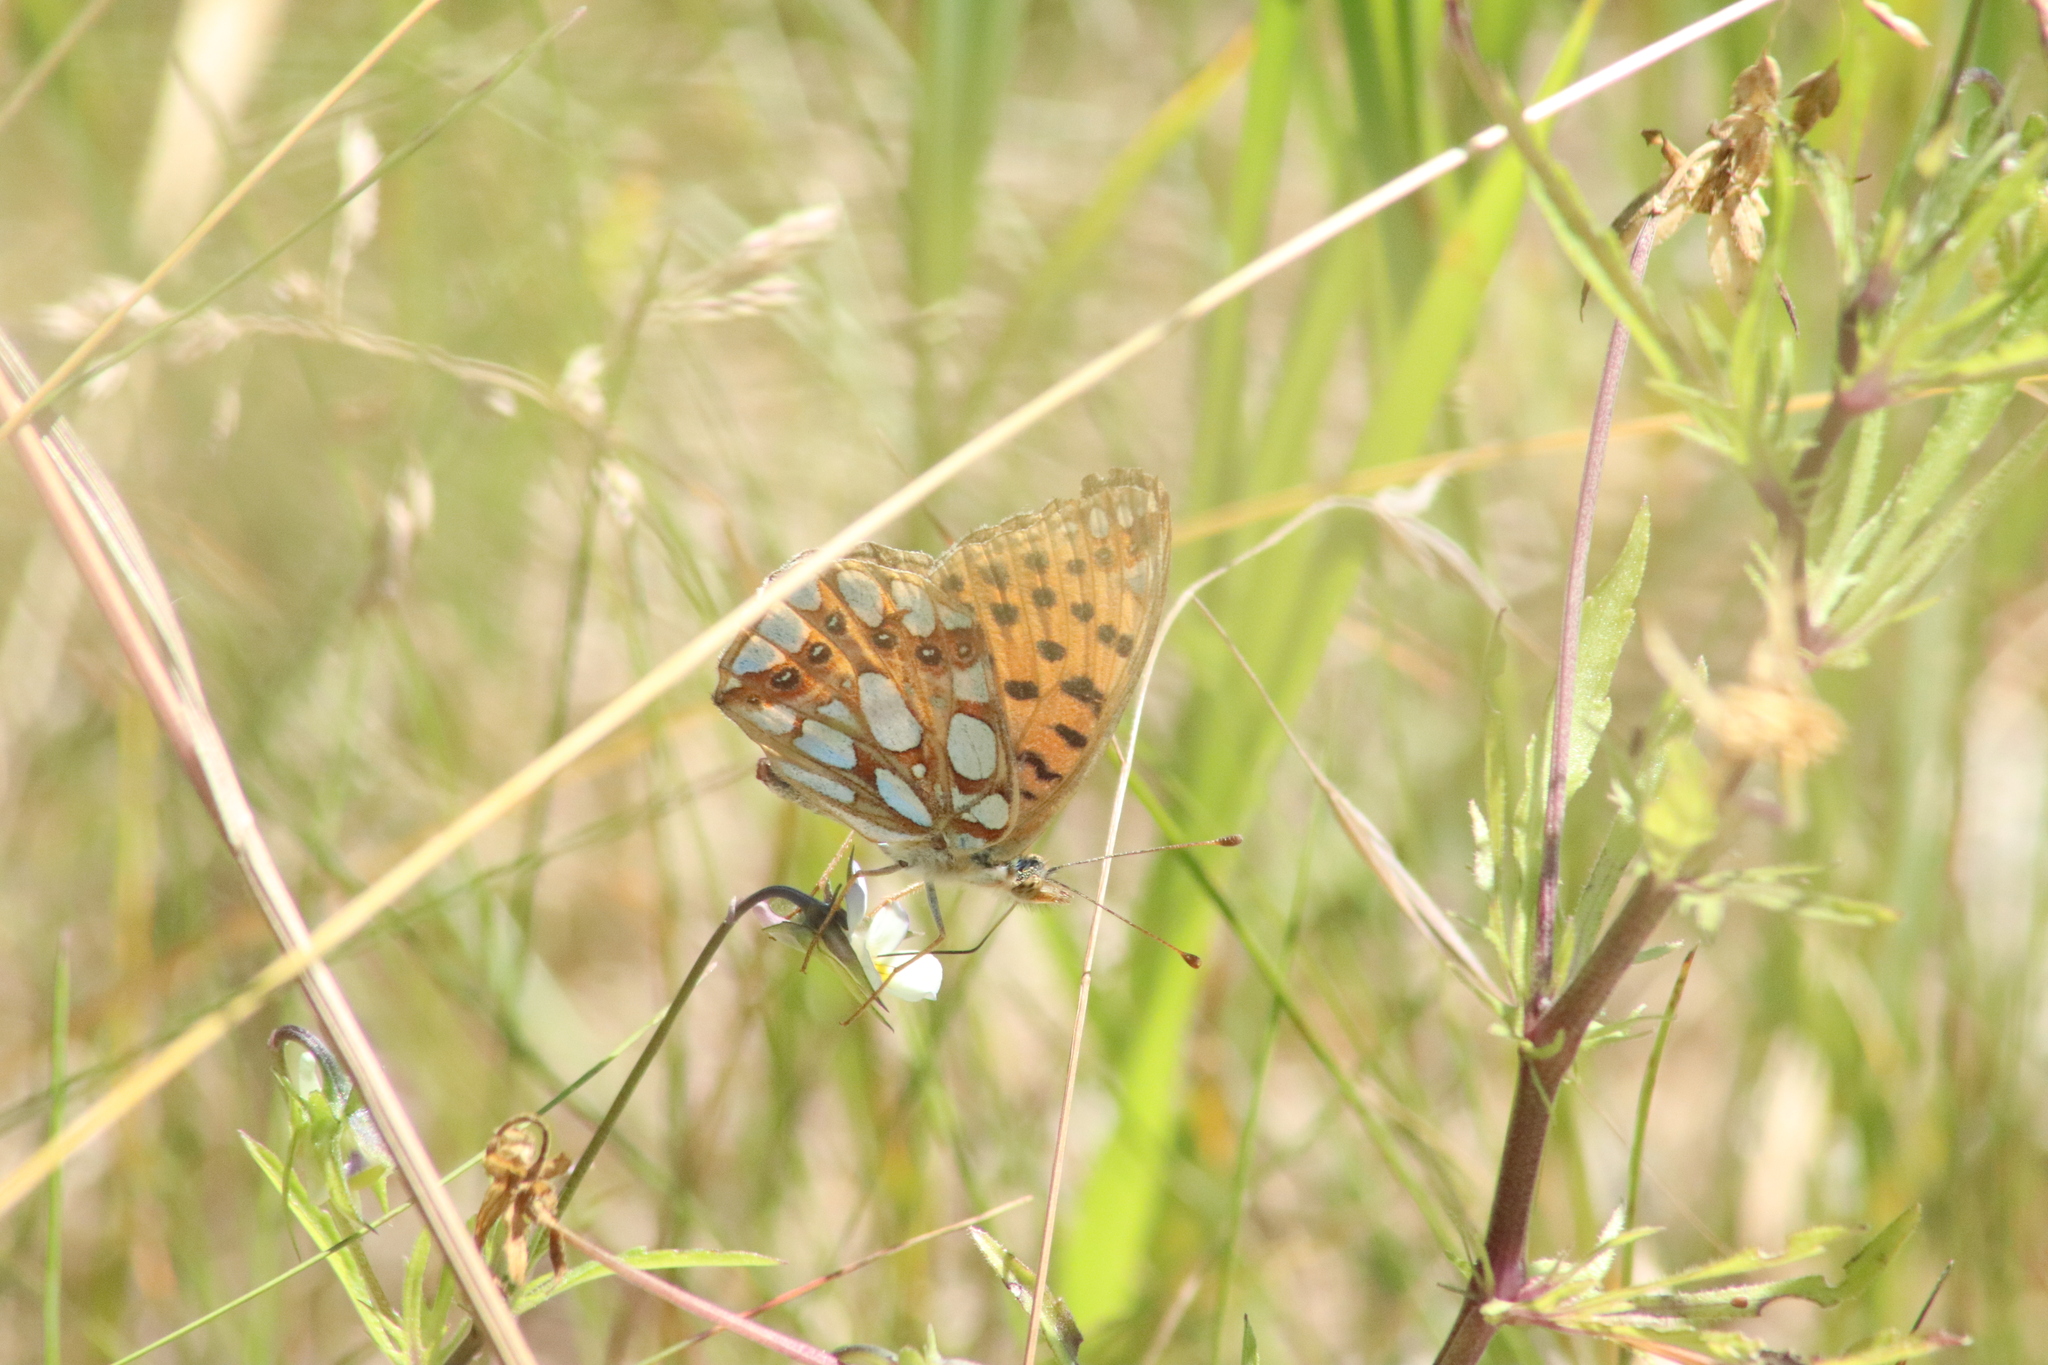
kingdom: Animalia
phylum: Arthropoda
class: Insecta
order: Lepidoptera
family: Nymphalidae
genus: Issoria
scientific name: Issoria lathonia
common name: Queen of spain fritillary
